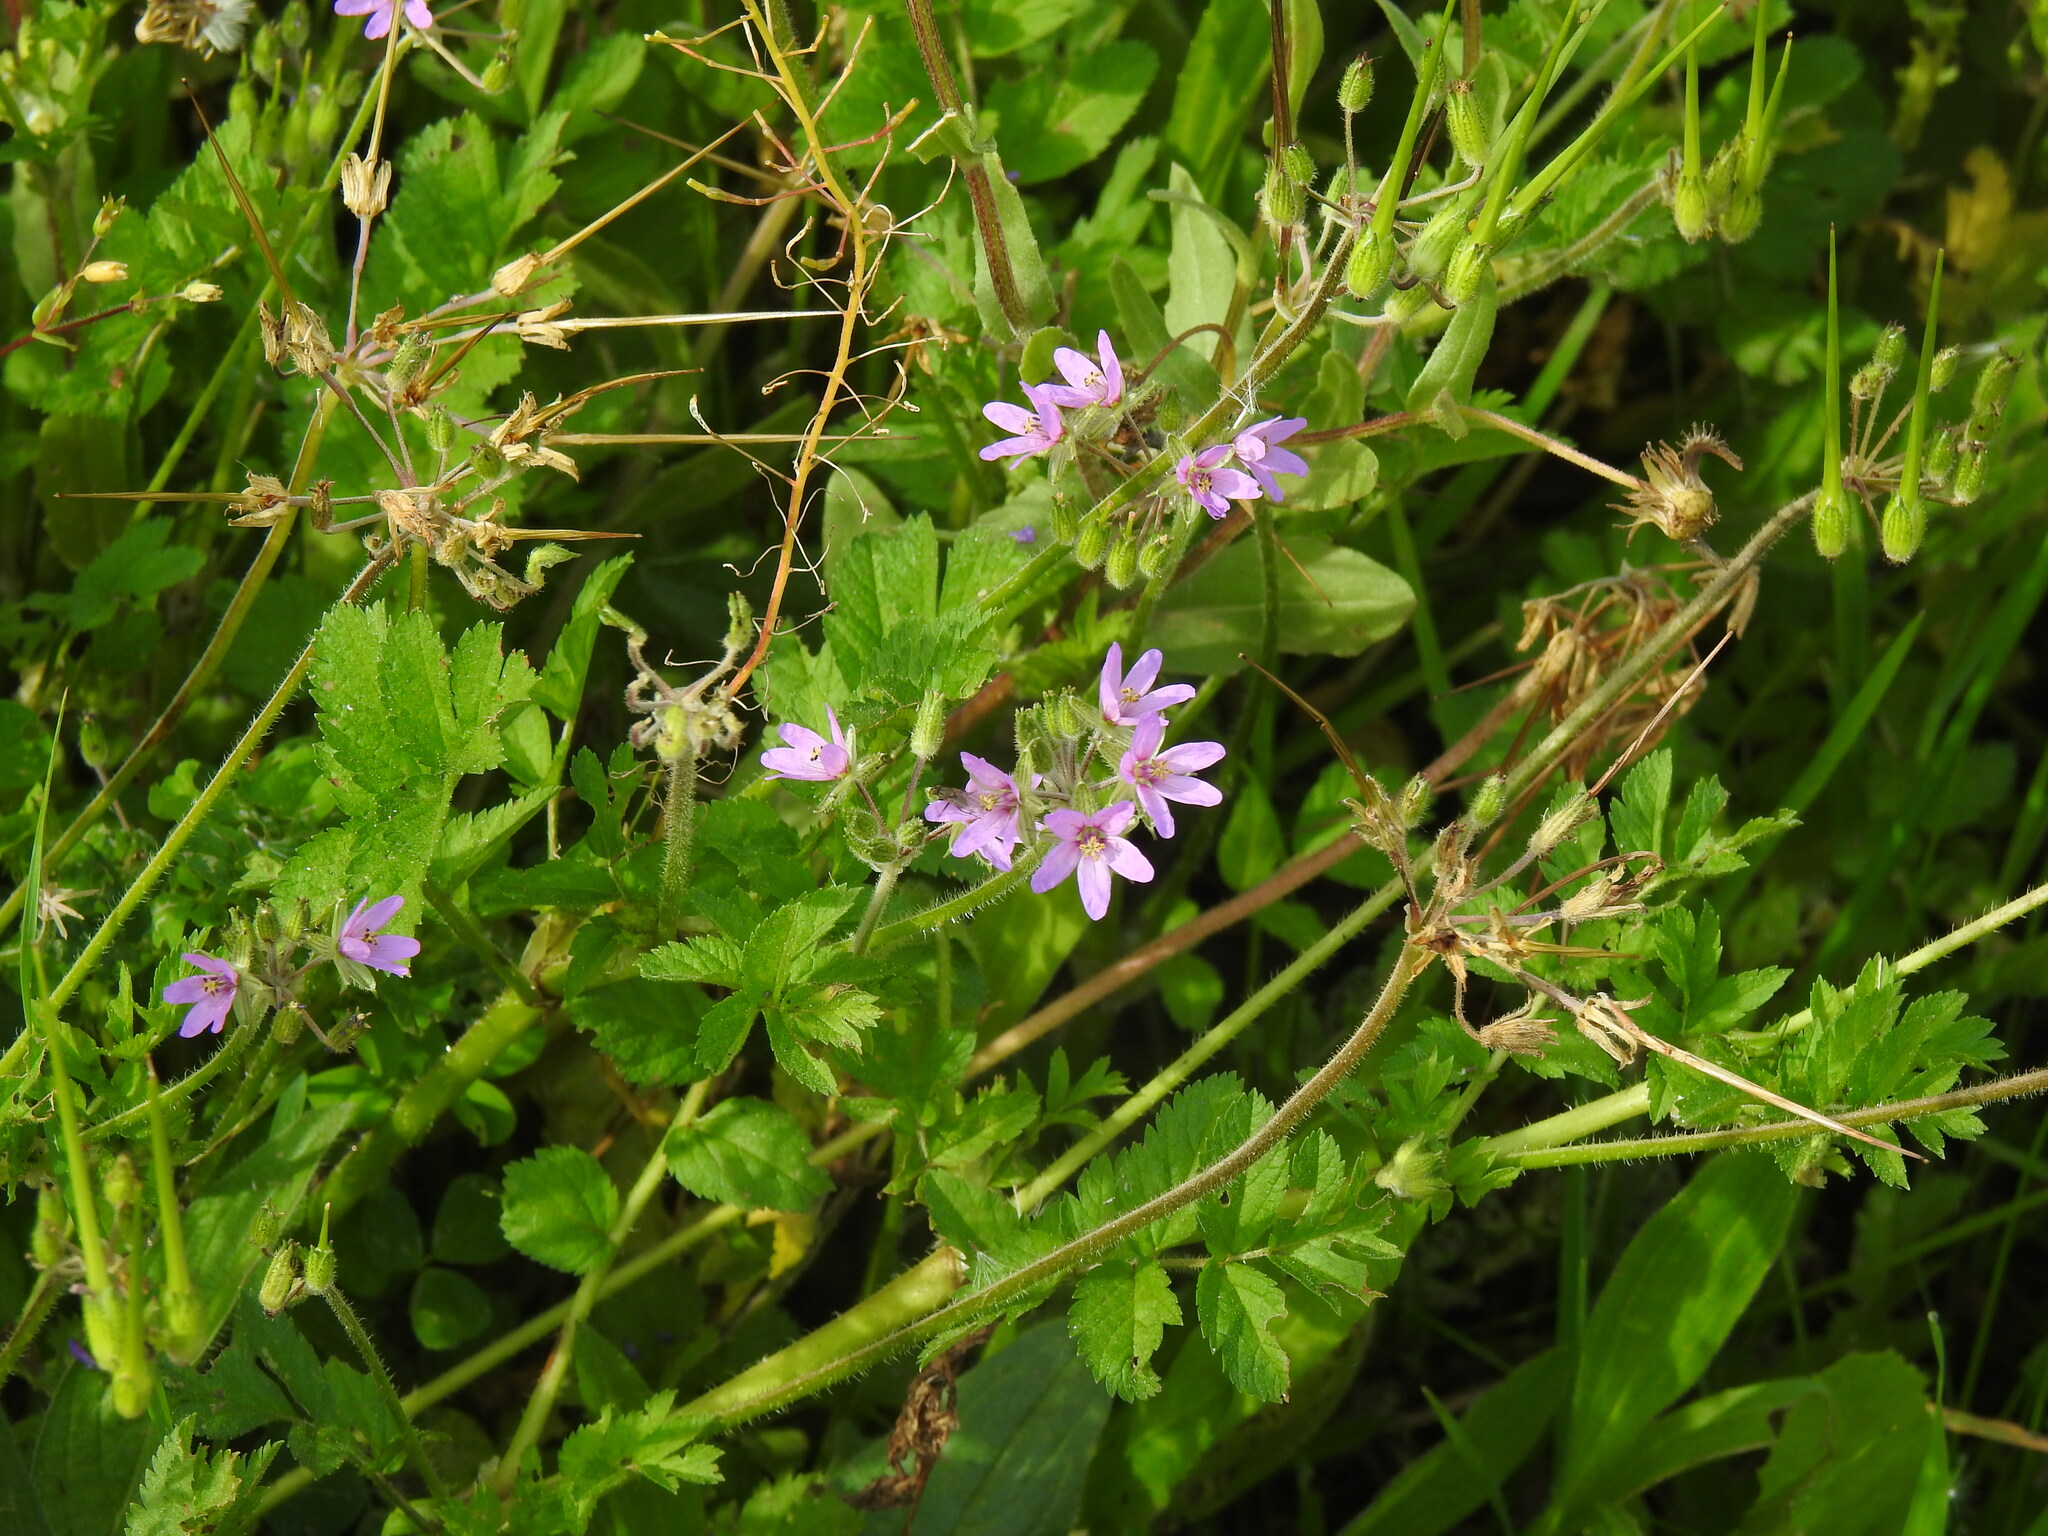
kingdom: Plantae
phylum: Tracheophyta
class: Magnoliopsida
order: Geraniales
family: Geraniaceae
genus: Erodium
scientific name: Erodium moschatum
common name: Musk stork's-bill
